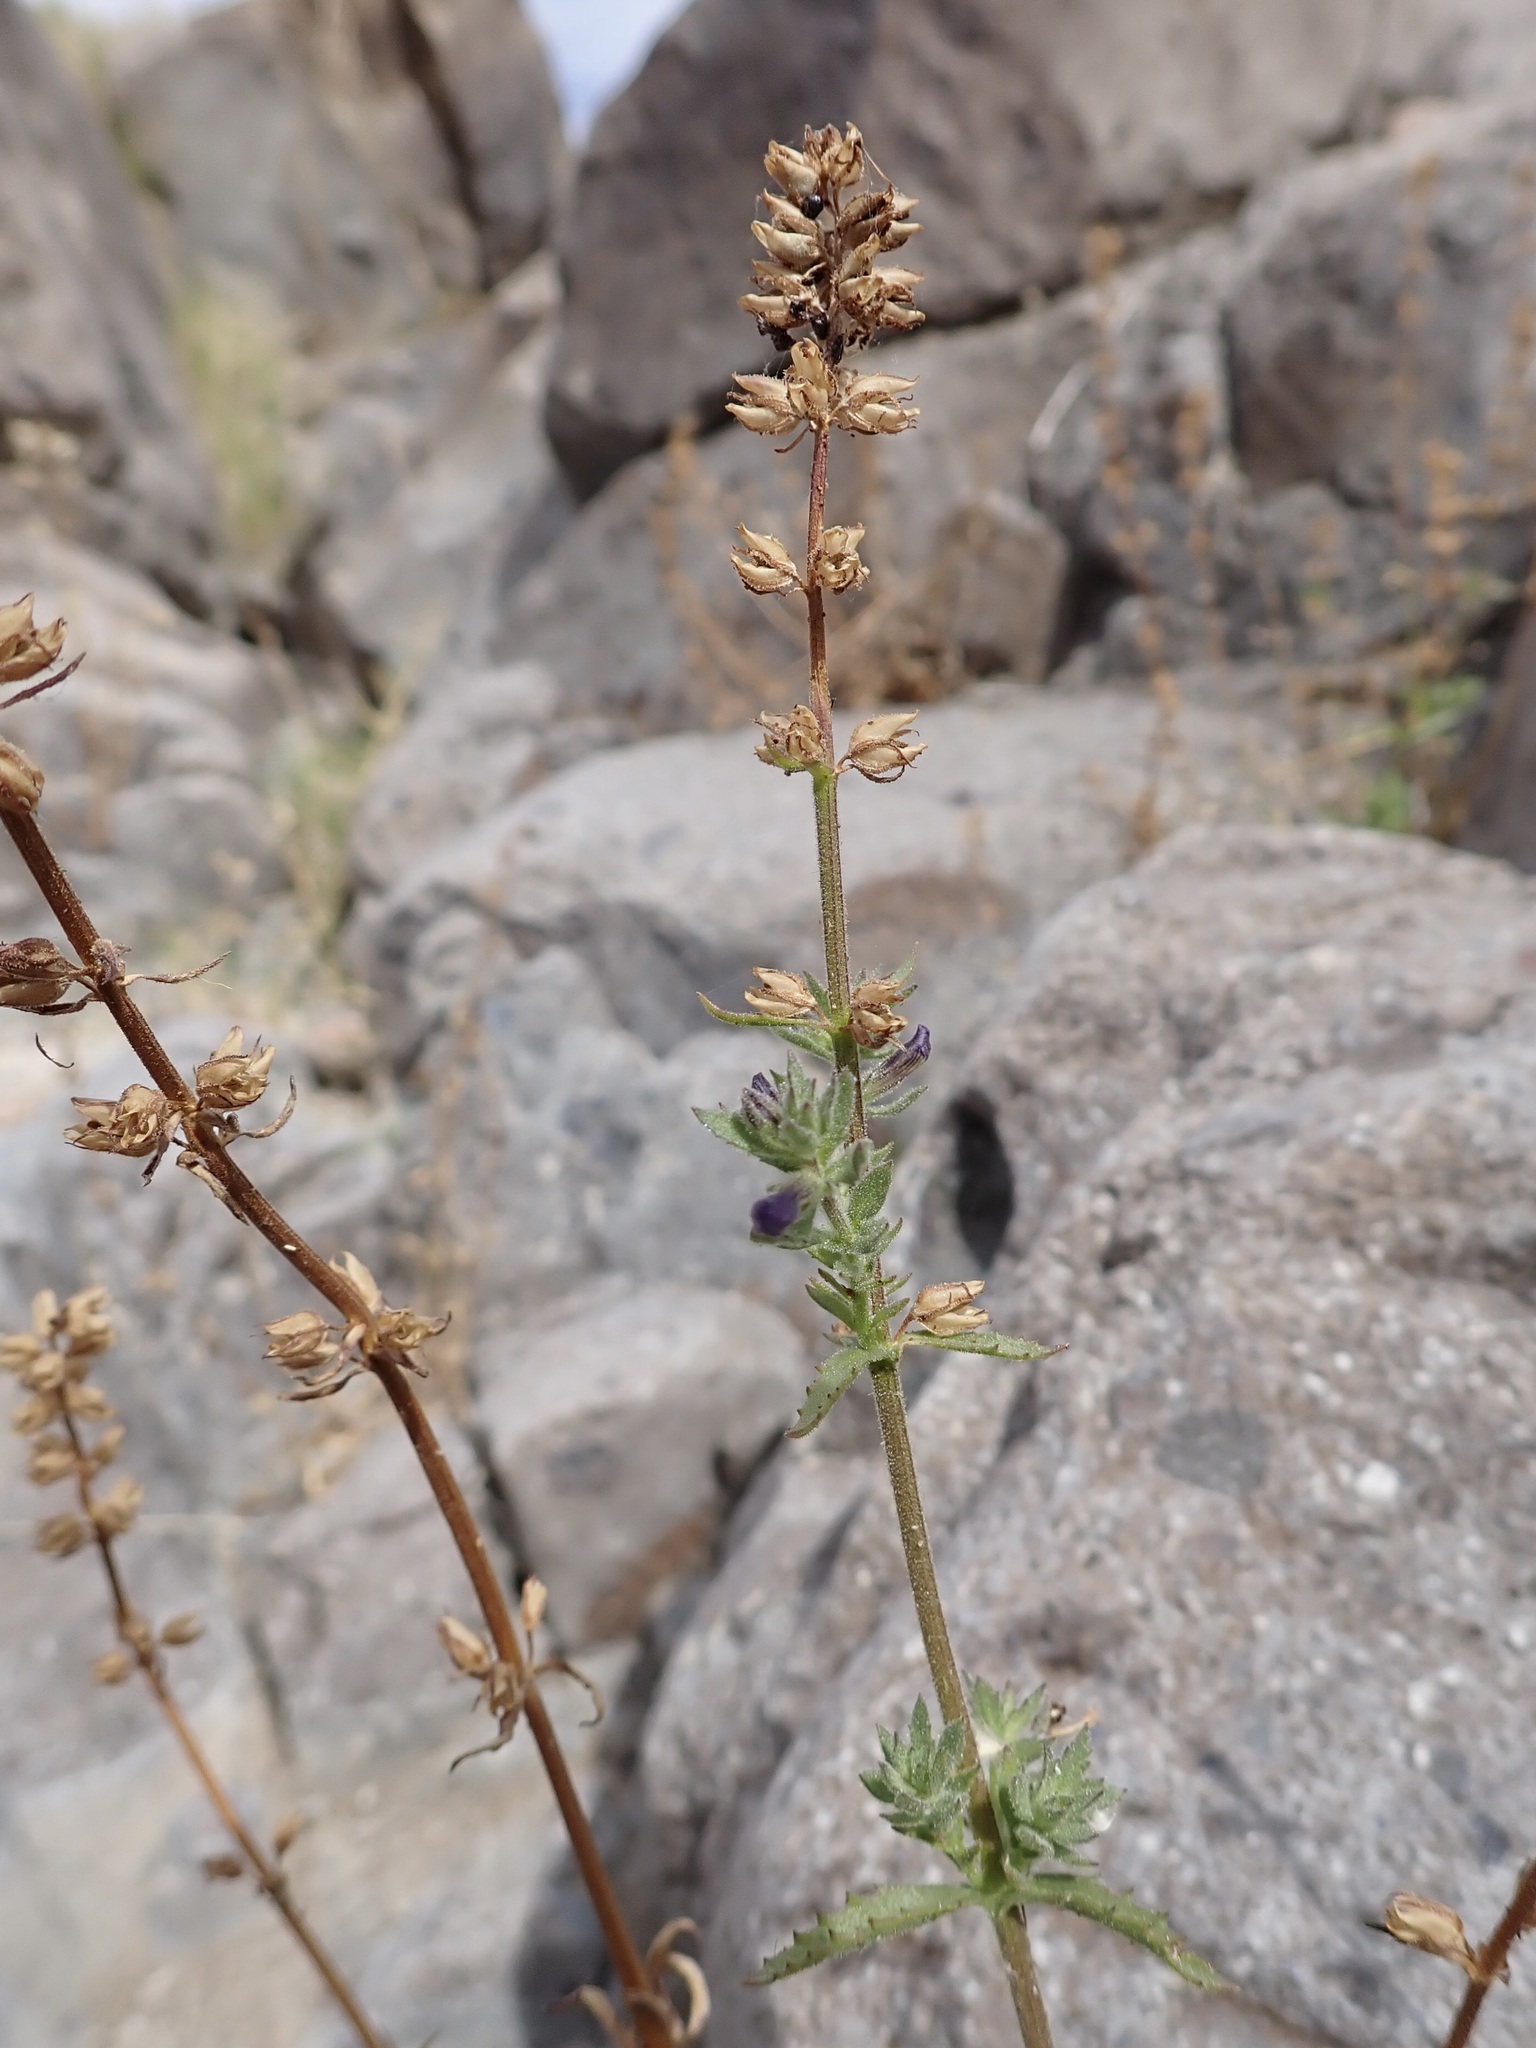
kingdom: Plantae
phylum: Tracheophyta
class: Magnoliopsida
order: Lamiales
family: Plantaginaceae
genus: Stemodia
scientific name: Stemodia durantifolia
